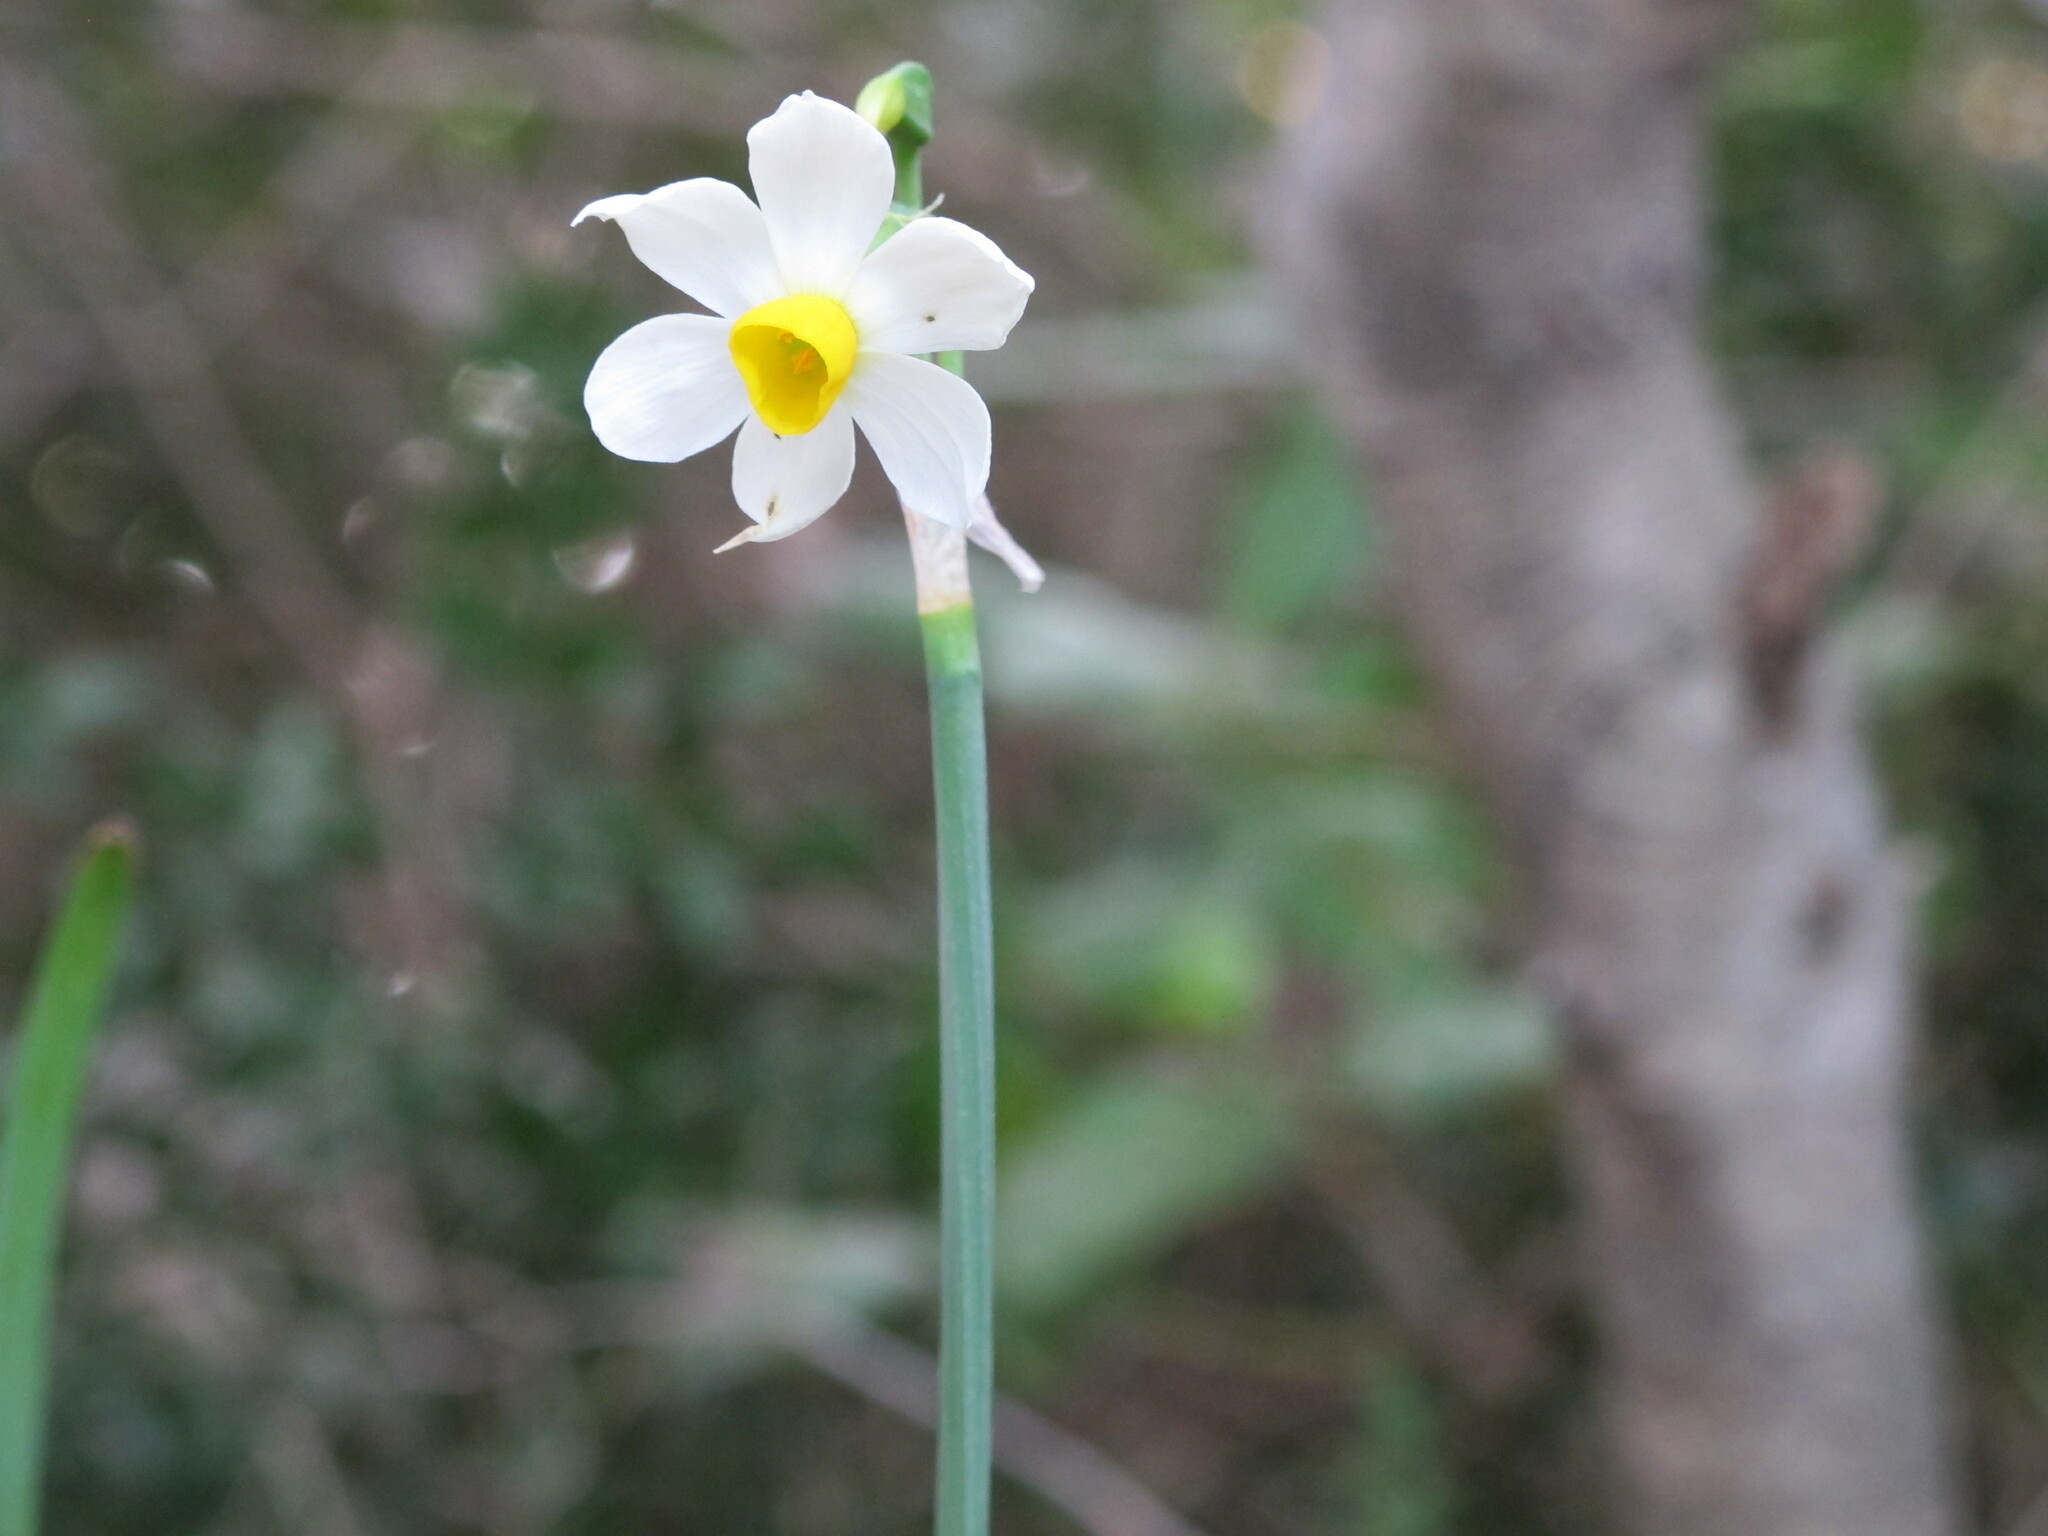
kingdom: Plantae
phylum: Tracheophyta
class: Liliopsida
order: Asparagales
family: Amaryllidaceae
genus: Narcissus
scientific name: Narcissus tazetta
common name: Bunch-flowered daffodil
